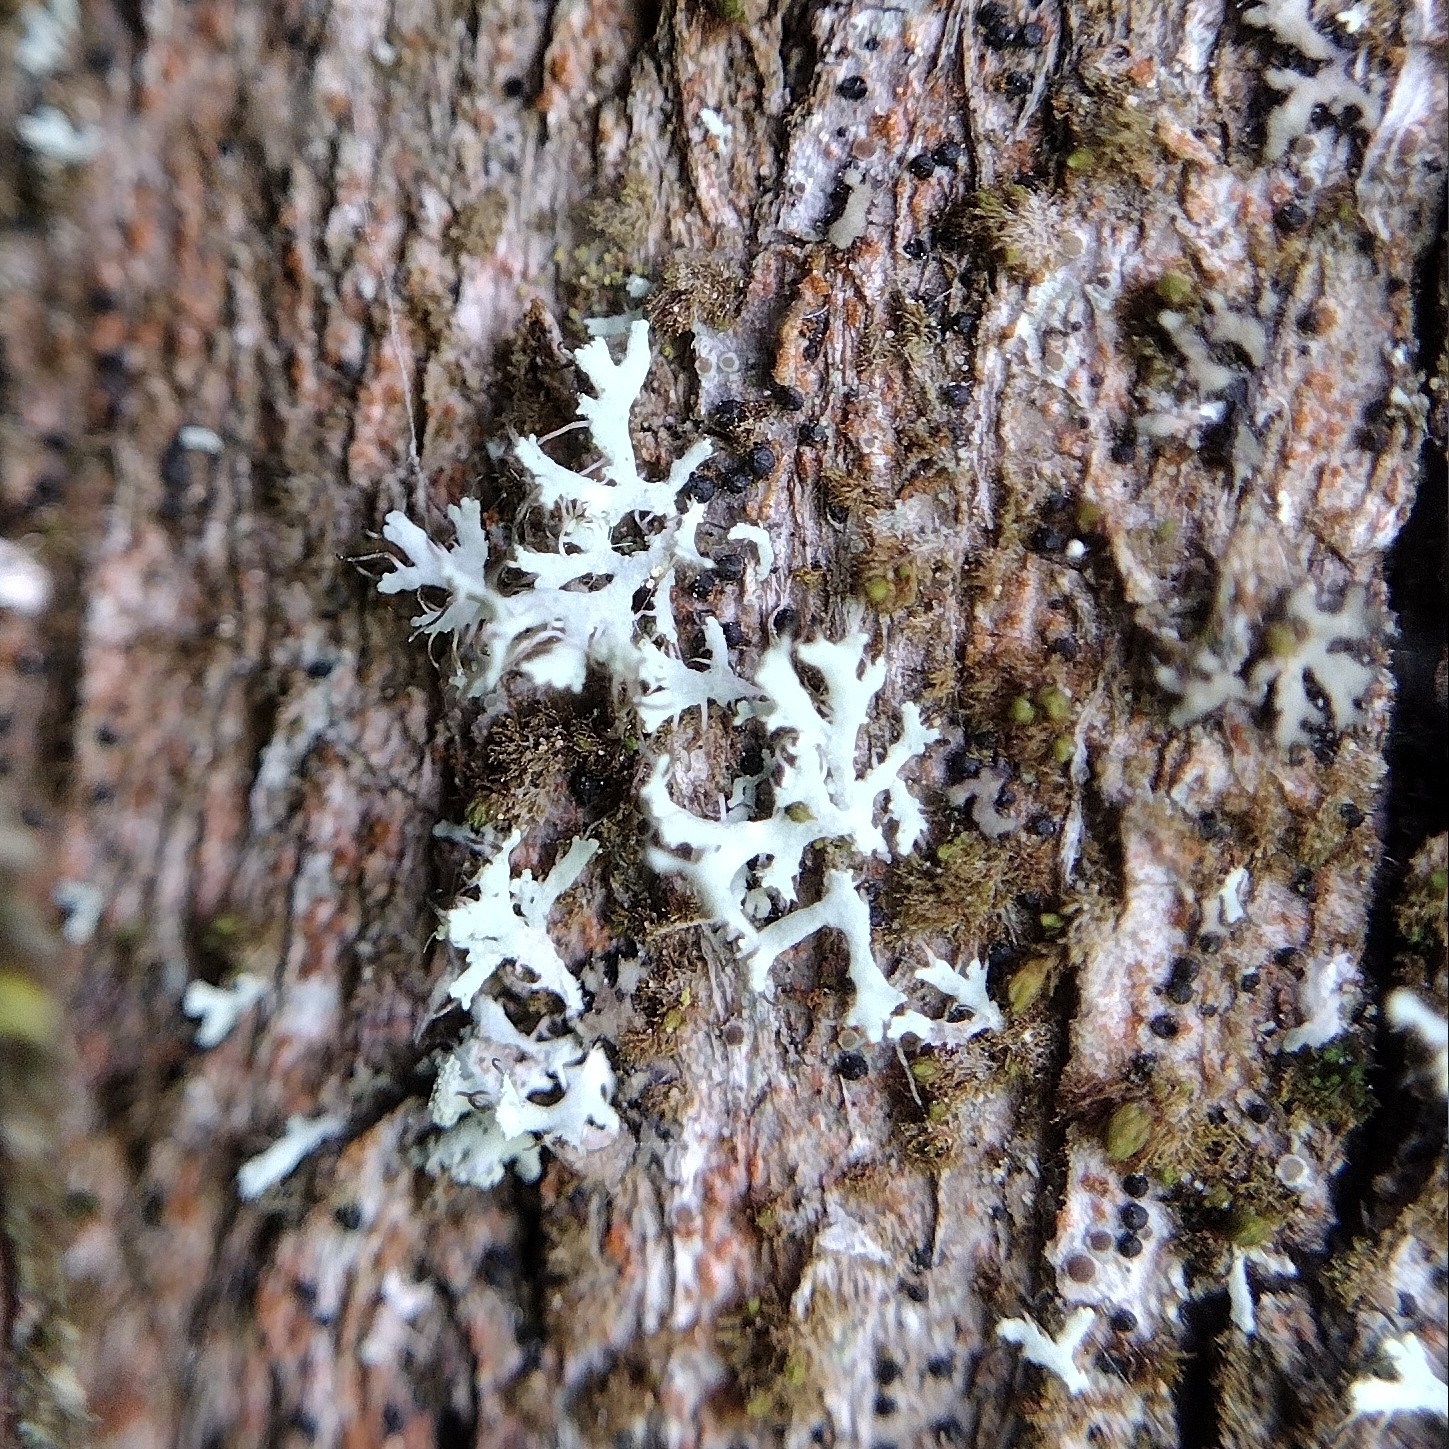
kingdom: Fungi
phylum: Ascomycota
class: Lecanoromycetes
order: Caliciales
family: Physciaceae
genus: Physcia
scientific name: Physcia tenella
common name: Fringed rosette lichen
